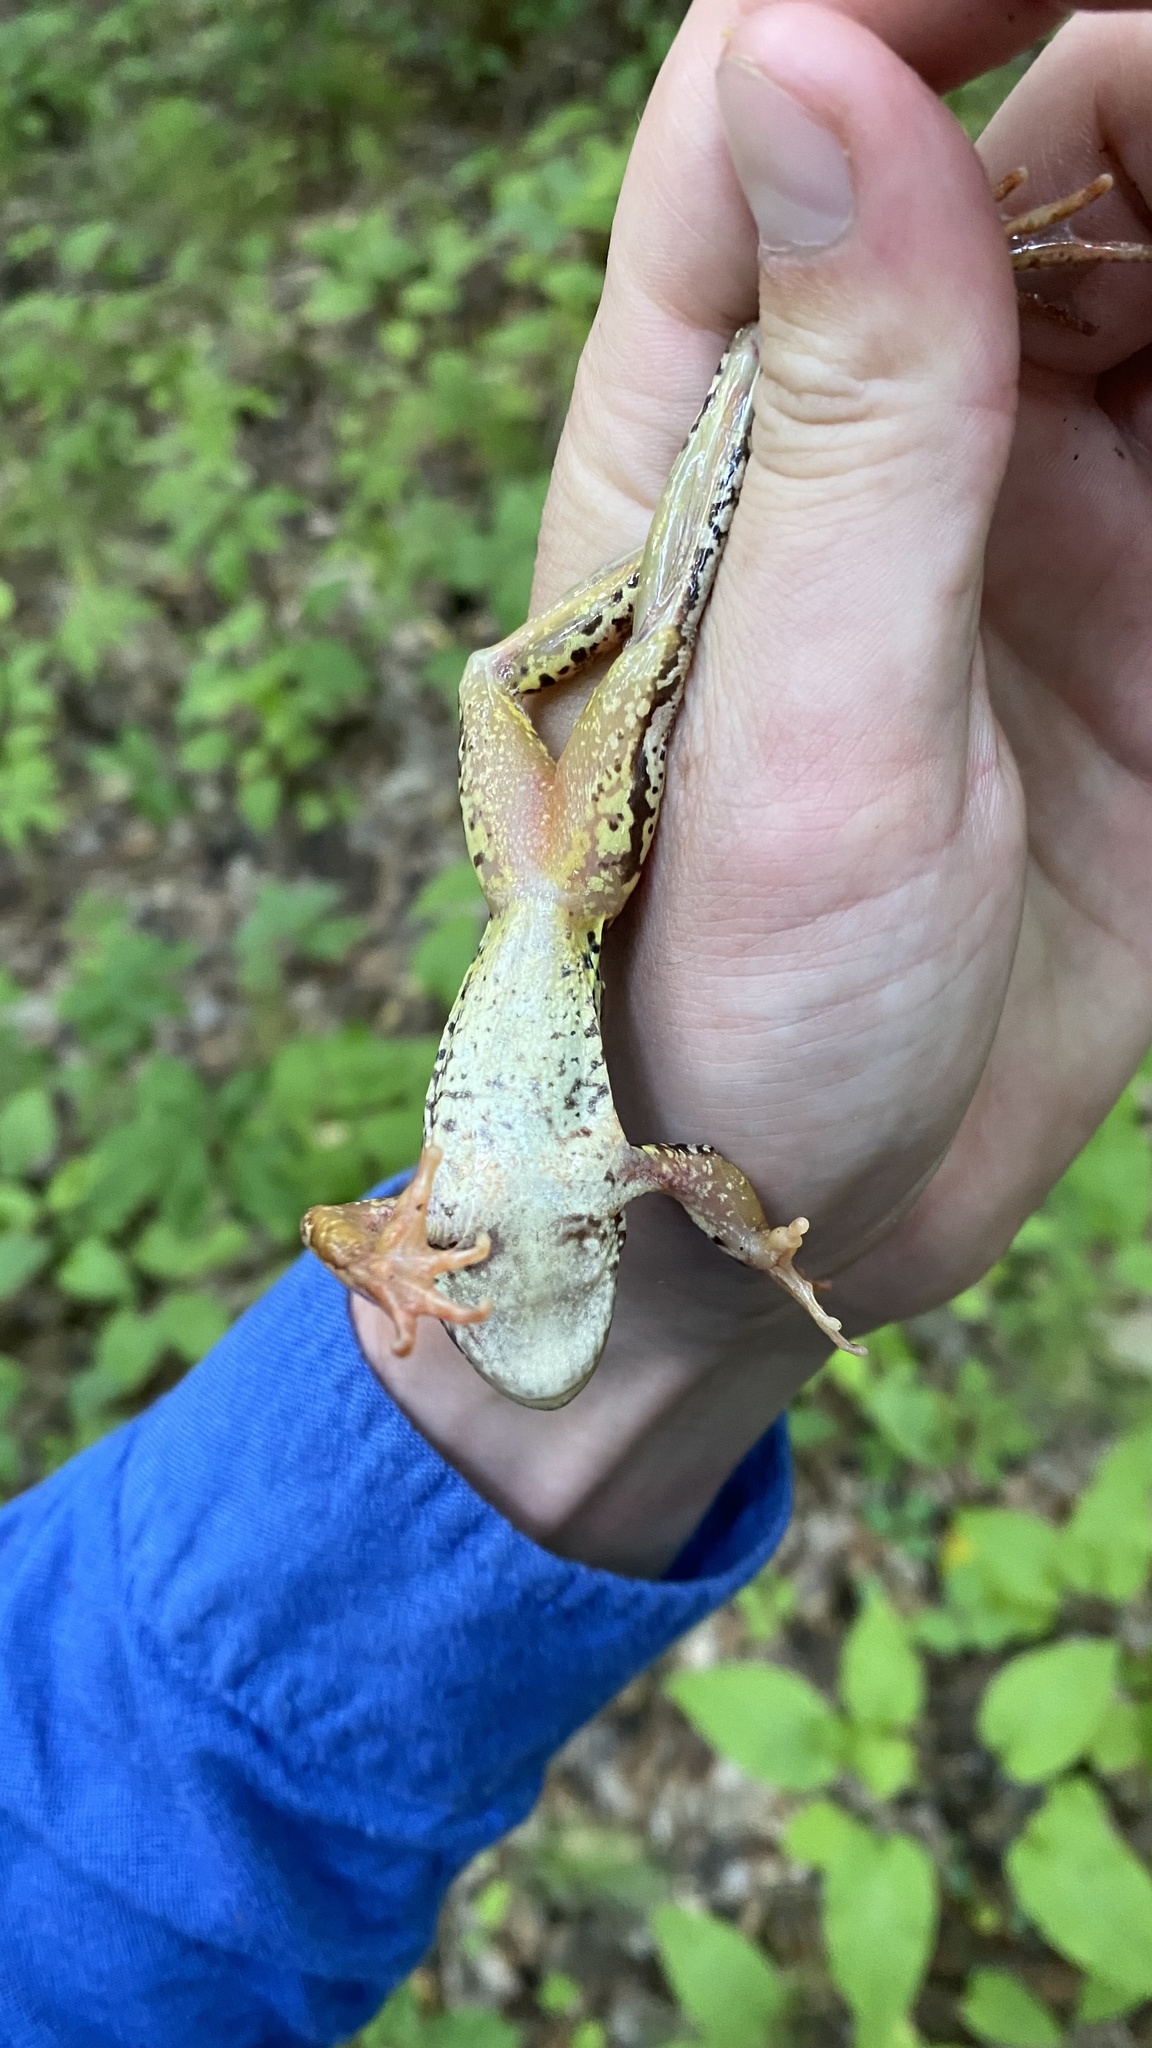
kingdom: Animalia
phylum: Chordata
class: Amphibia
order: Anura
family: Ranidae
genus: Rana
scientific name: Rana temporaria
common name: Common frog
